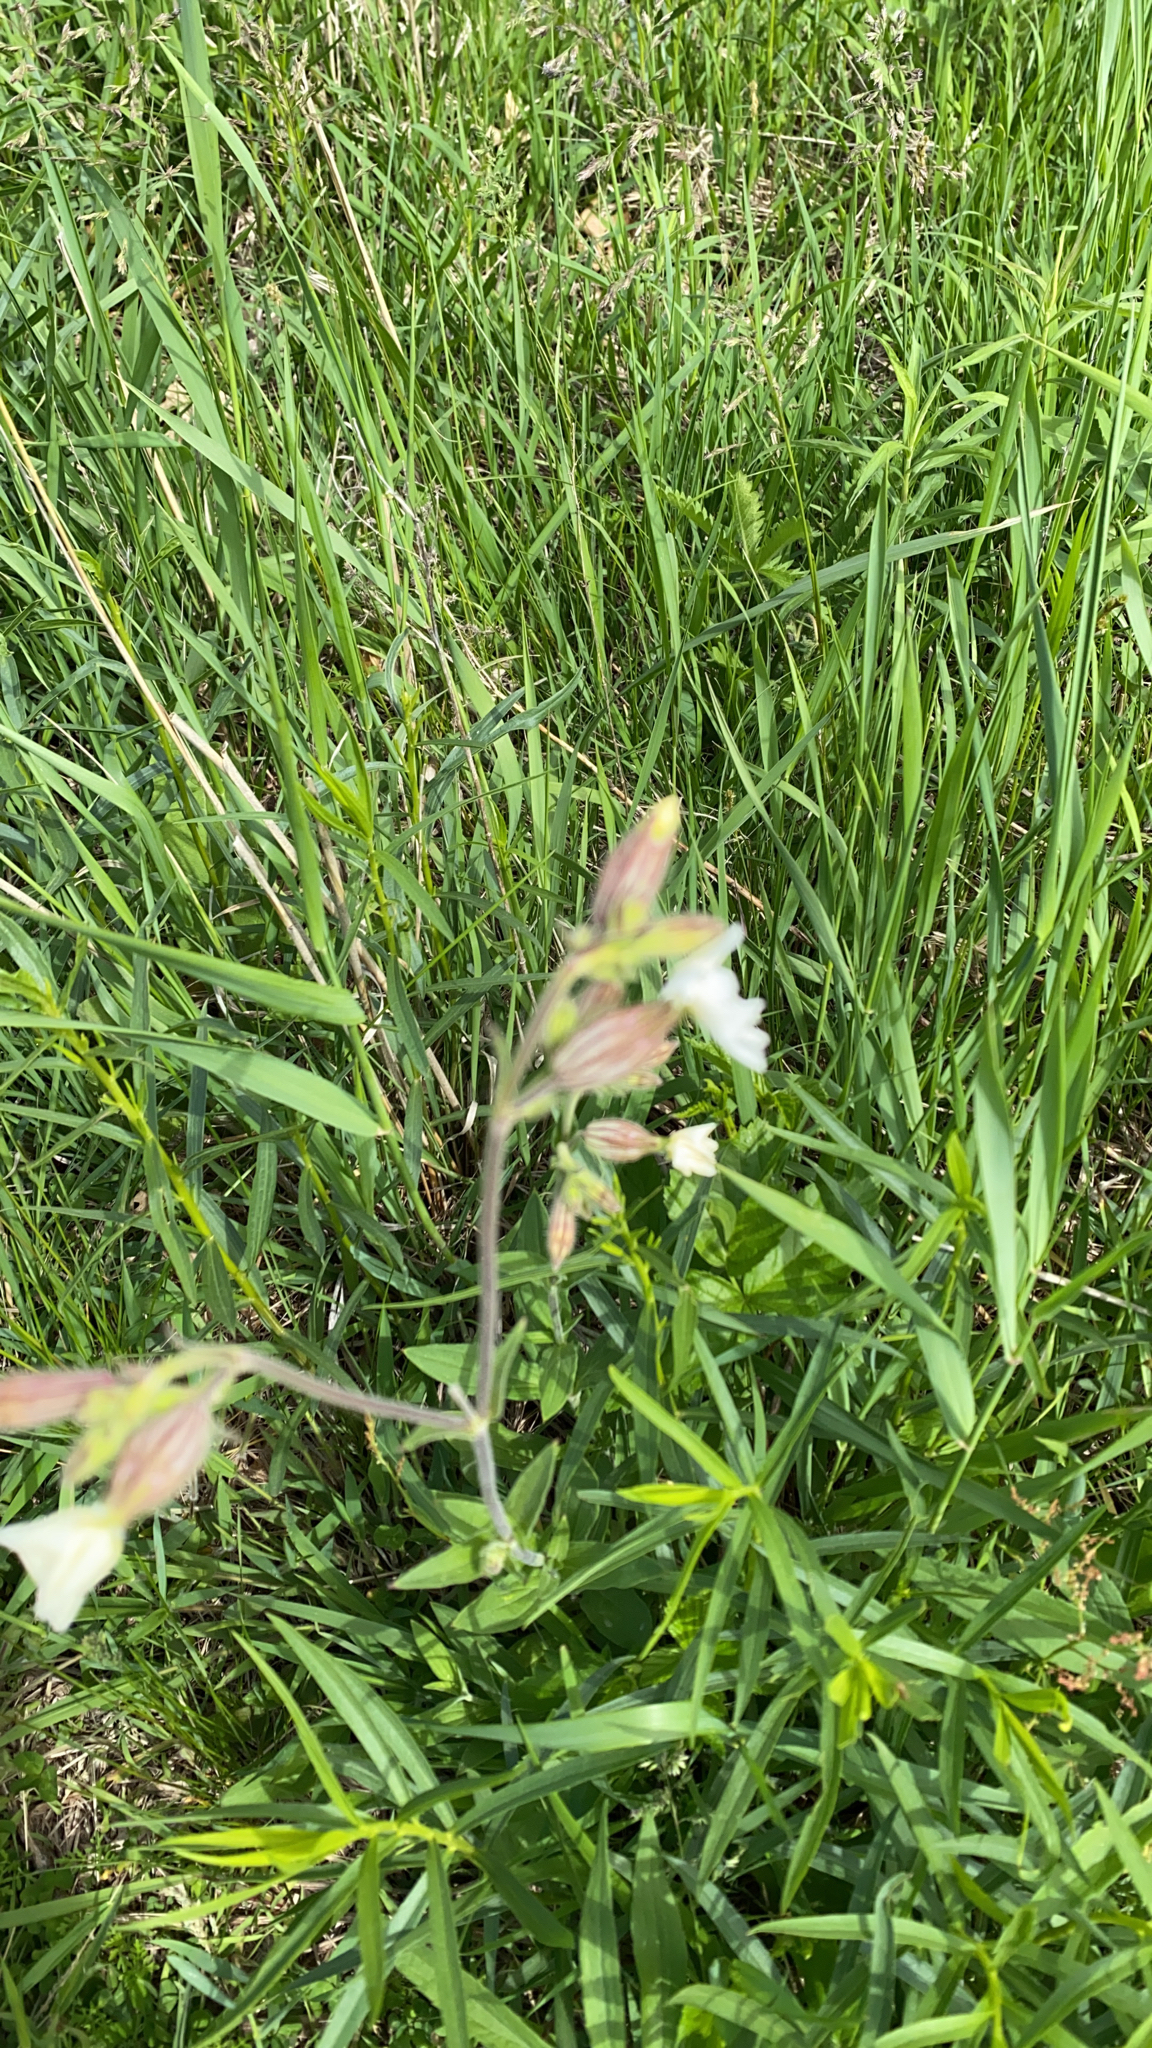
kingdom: Plantae
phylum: Tracheophyta
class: Magnoliopsida
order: Caryophyllales
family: Caryophyllaceae
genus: Silene
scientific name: Silene latifolia
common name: White campion
